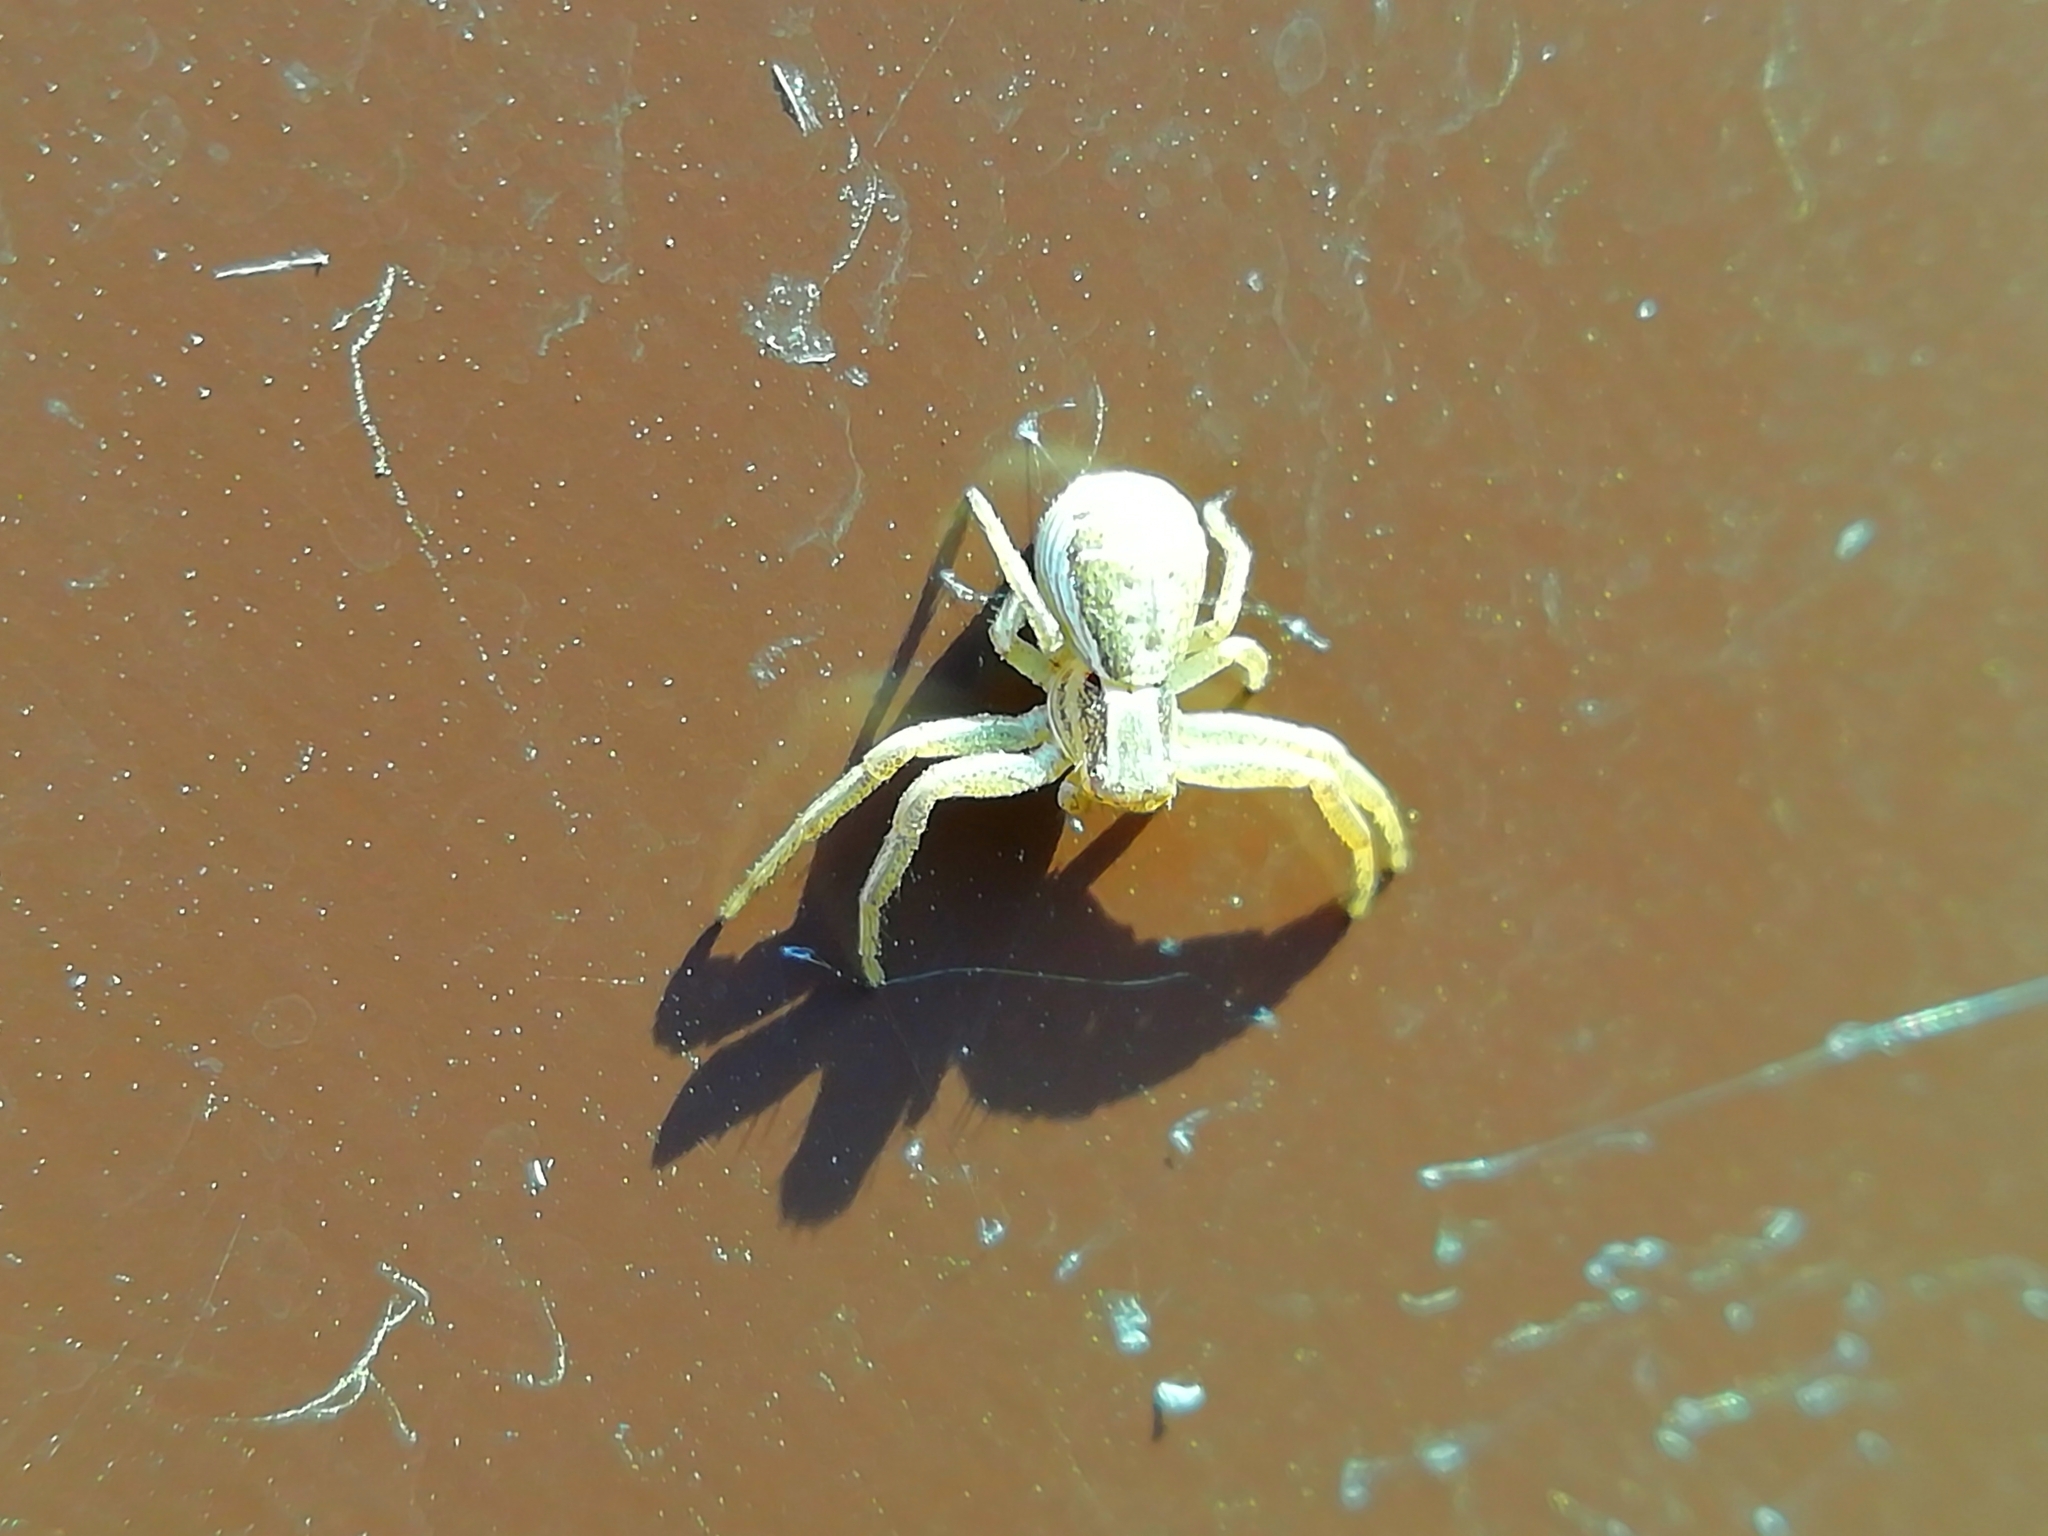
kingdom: Animalia
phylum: Arthropoda
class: Arachnida
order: Araneae
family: Thomisidae
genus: Xysticus
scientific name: Xysticus ulmi
